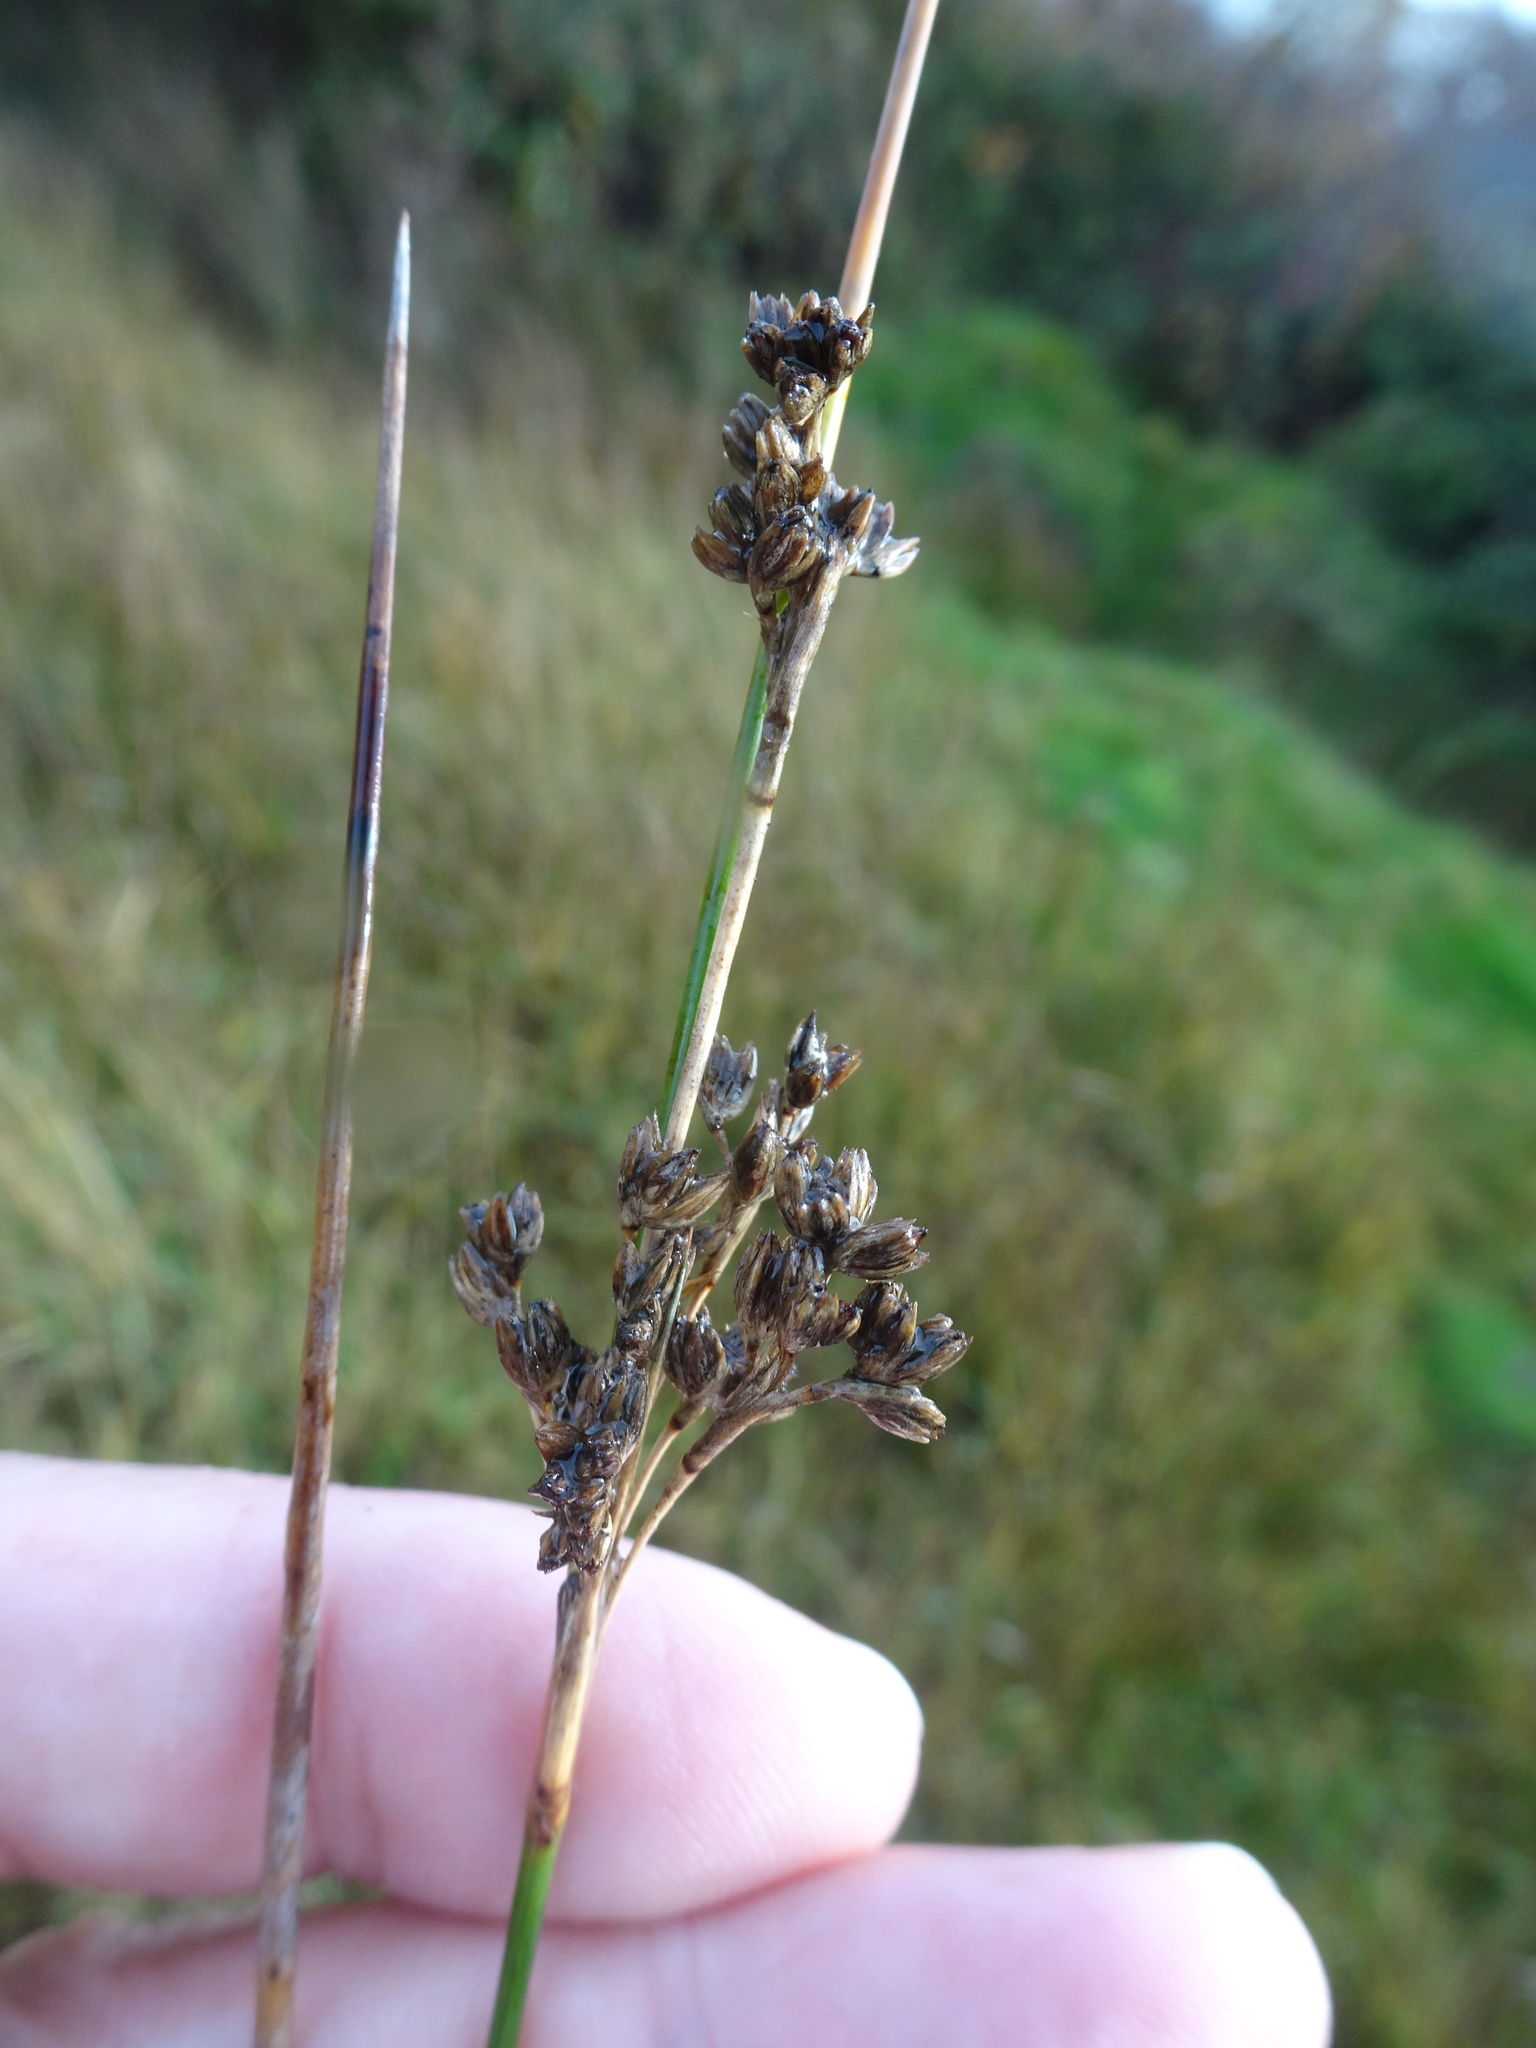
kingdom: Plantae
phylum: Tracheophyta
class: Liliopsida
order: Poales
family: Juncaceae
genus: Juncus
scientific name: Juncus maritimus
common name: Sea rush
